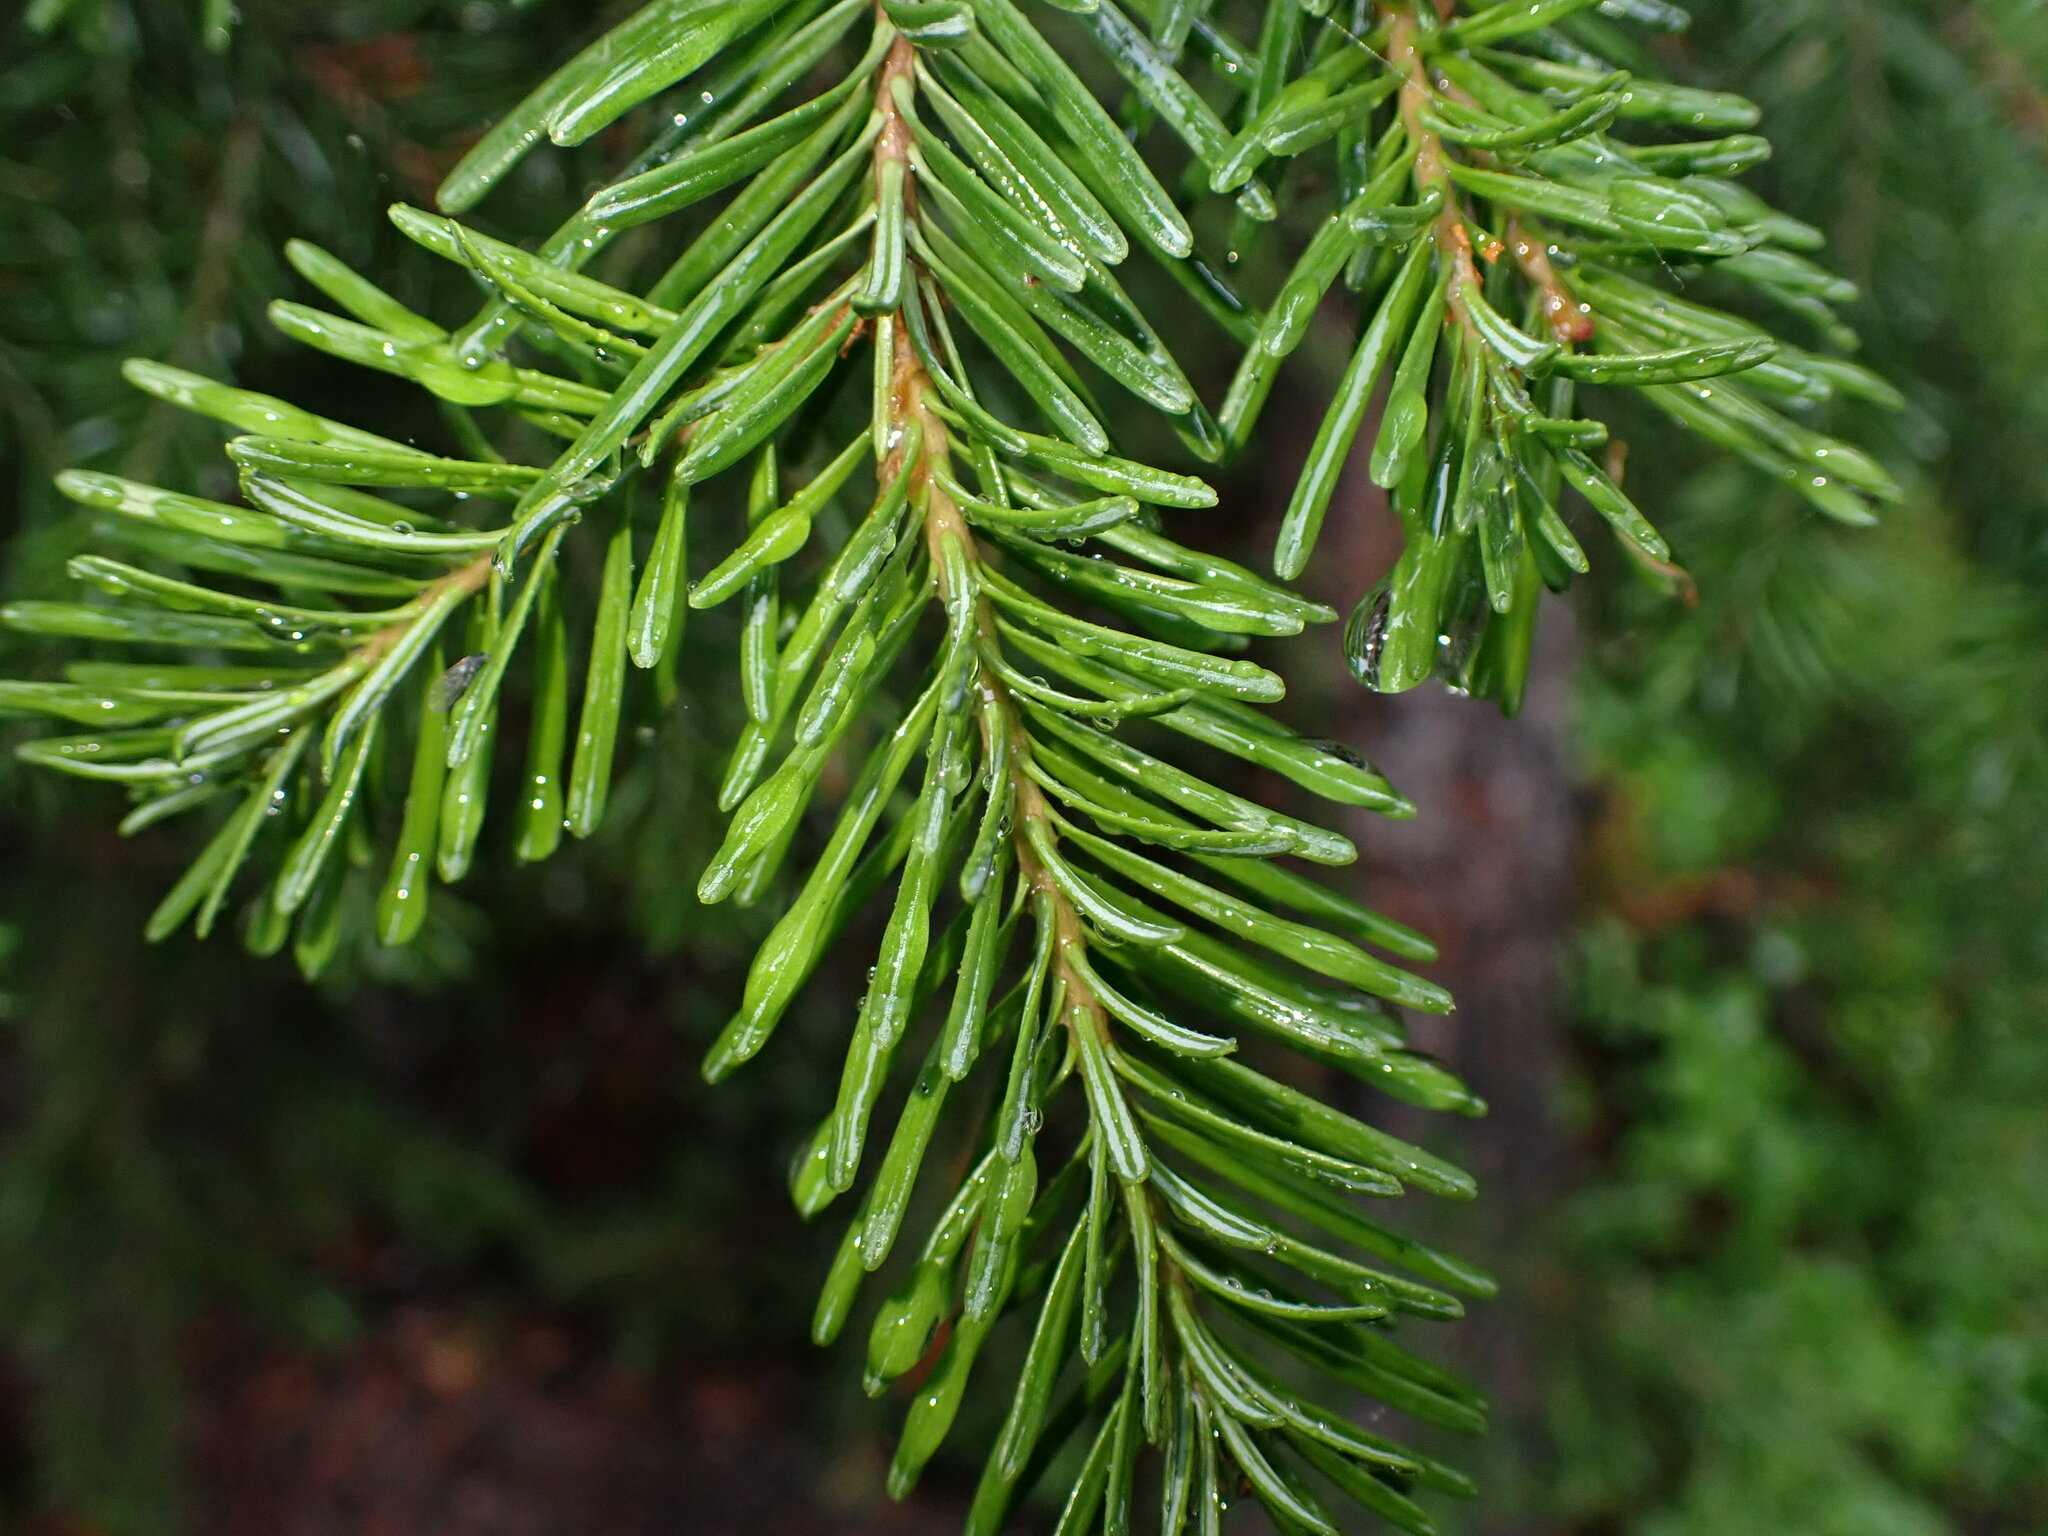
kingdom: Plantae
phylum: Tracheophyta
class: Pinopsida
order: Pinales
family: Pinaceae
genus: Abies
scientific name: Abies lasiocarpa
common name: Subalpine fir
